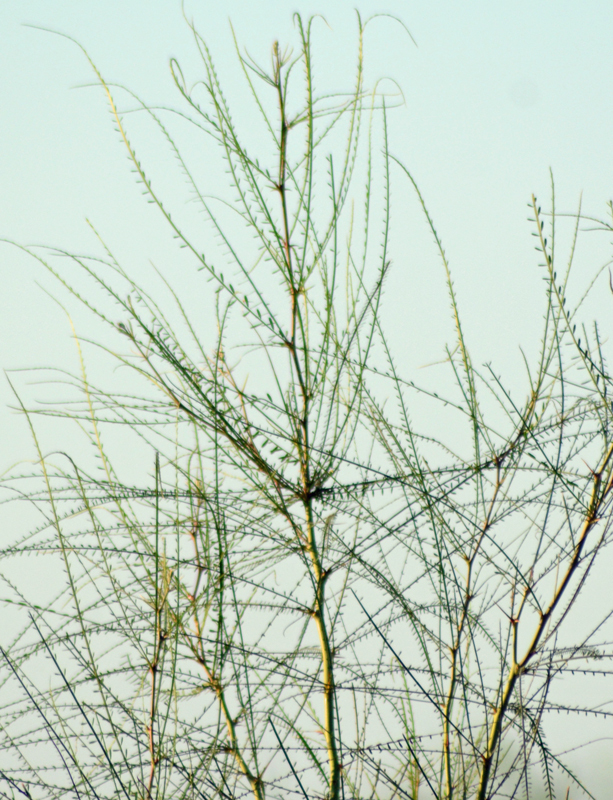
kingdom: Plantae
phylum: Tracheophyta
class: Magnoliopsida
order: Fabales
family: Fabaceae
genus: Parkinsonia
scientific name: Parkinsonia aculeata
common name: Jerusalem thorn
